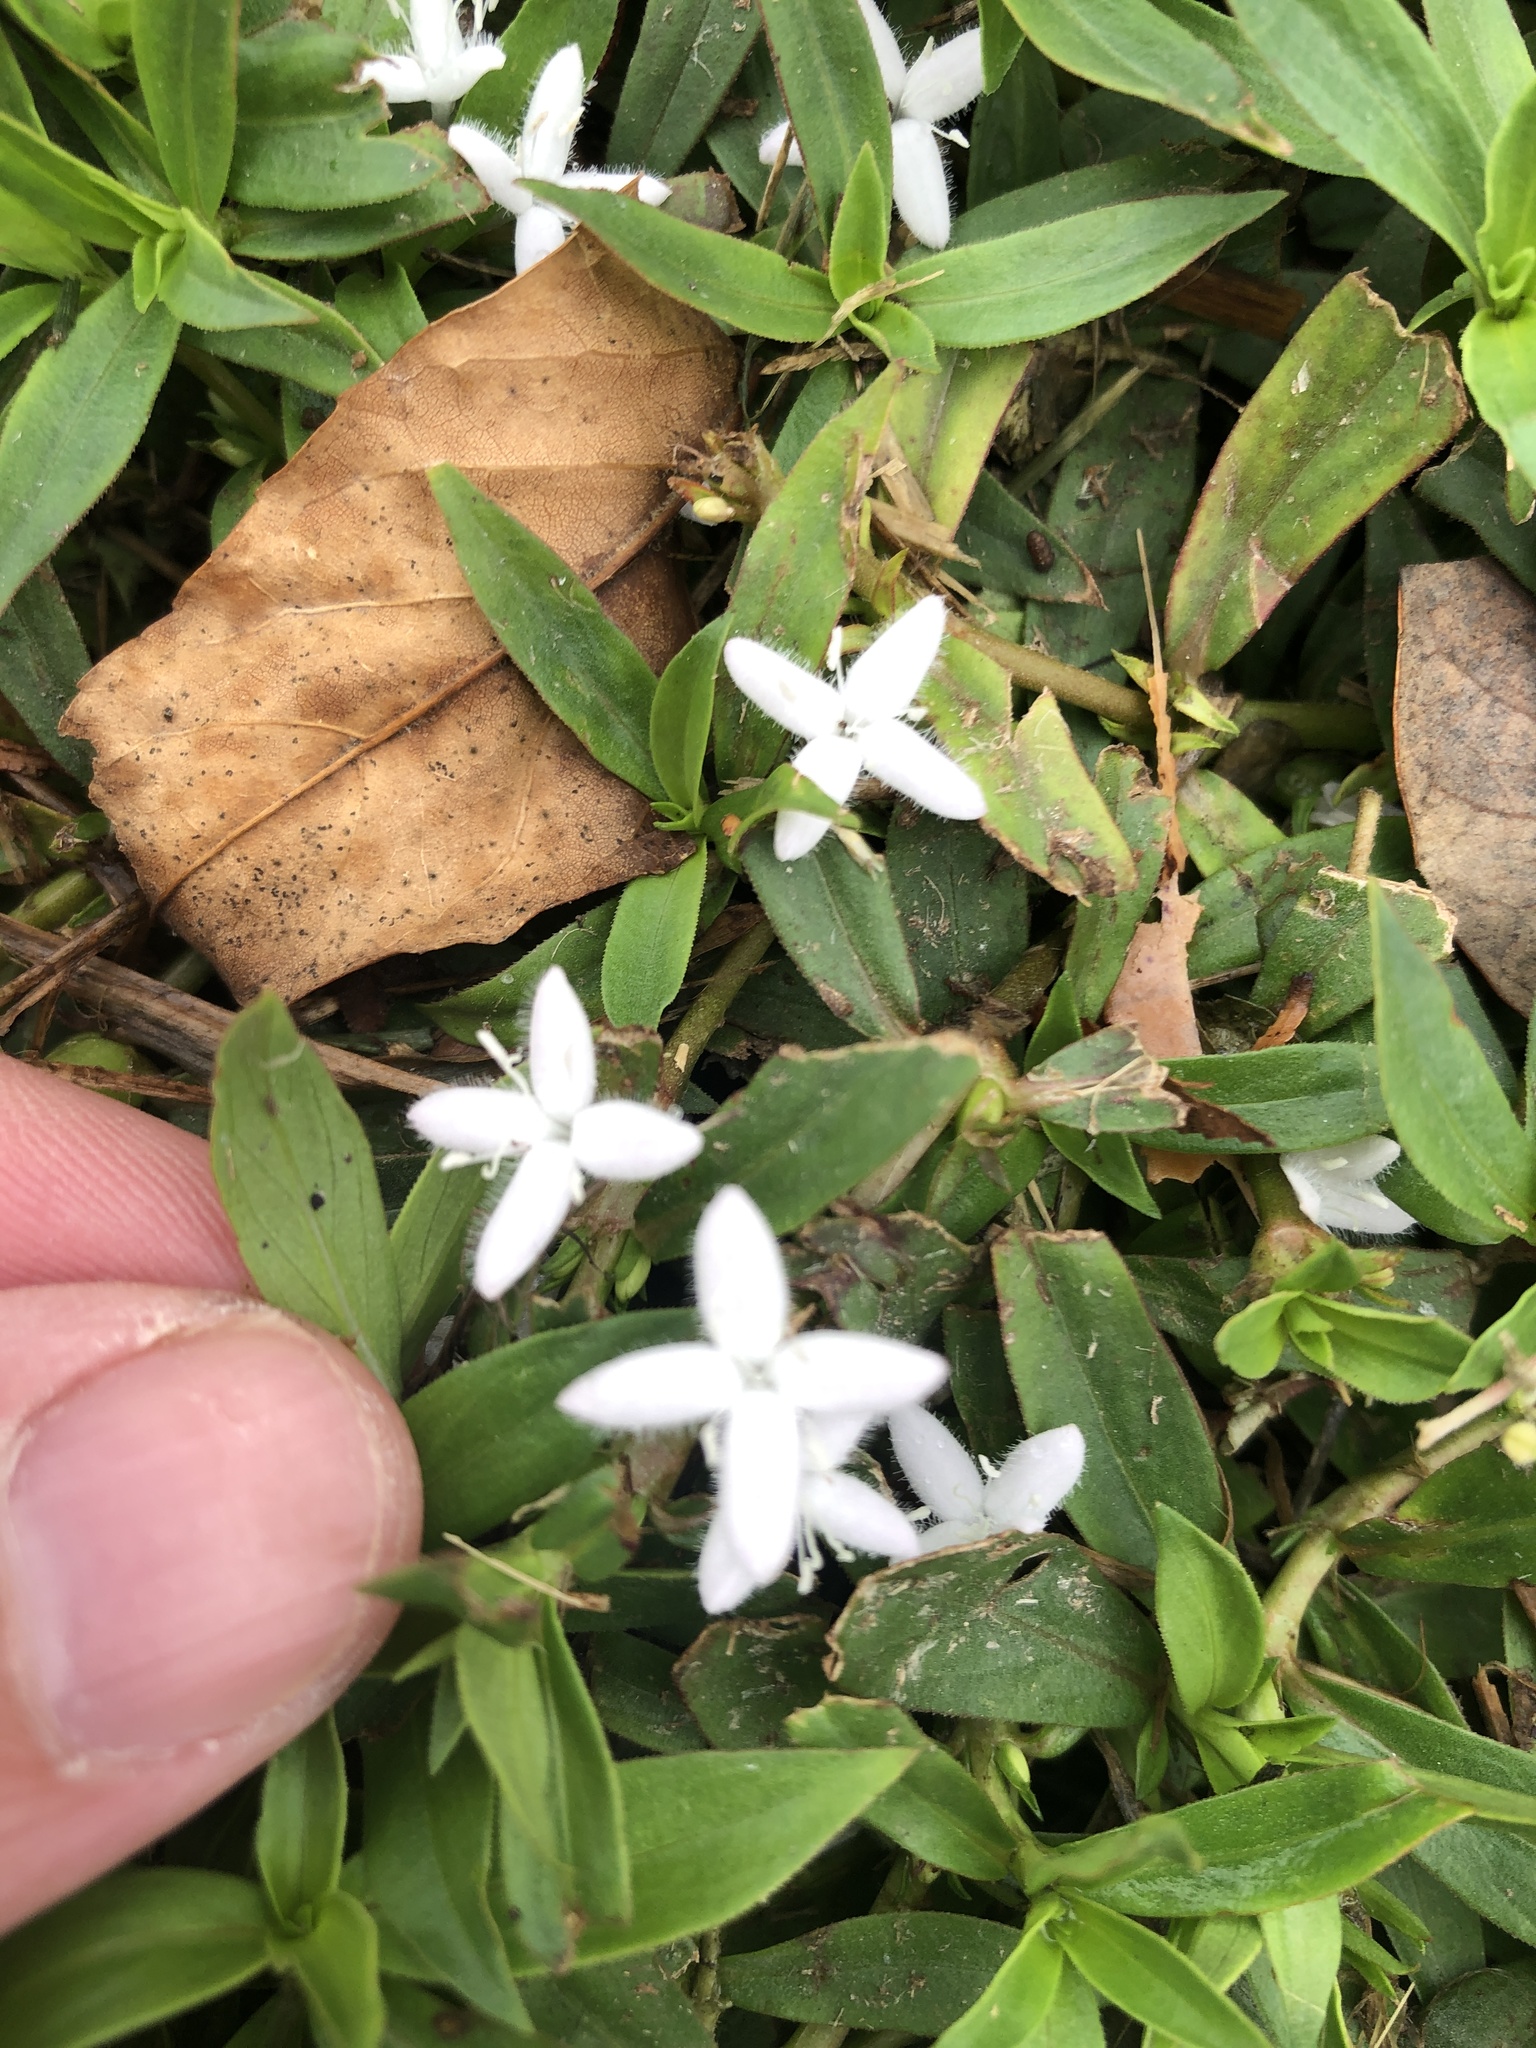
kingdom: Plantae
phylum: Tracheophyta
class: Magnoliopsida
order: Gentianales
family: Rubiaceae
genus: Diodia
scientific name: Diodia virginiana
